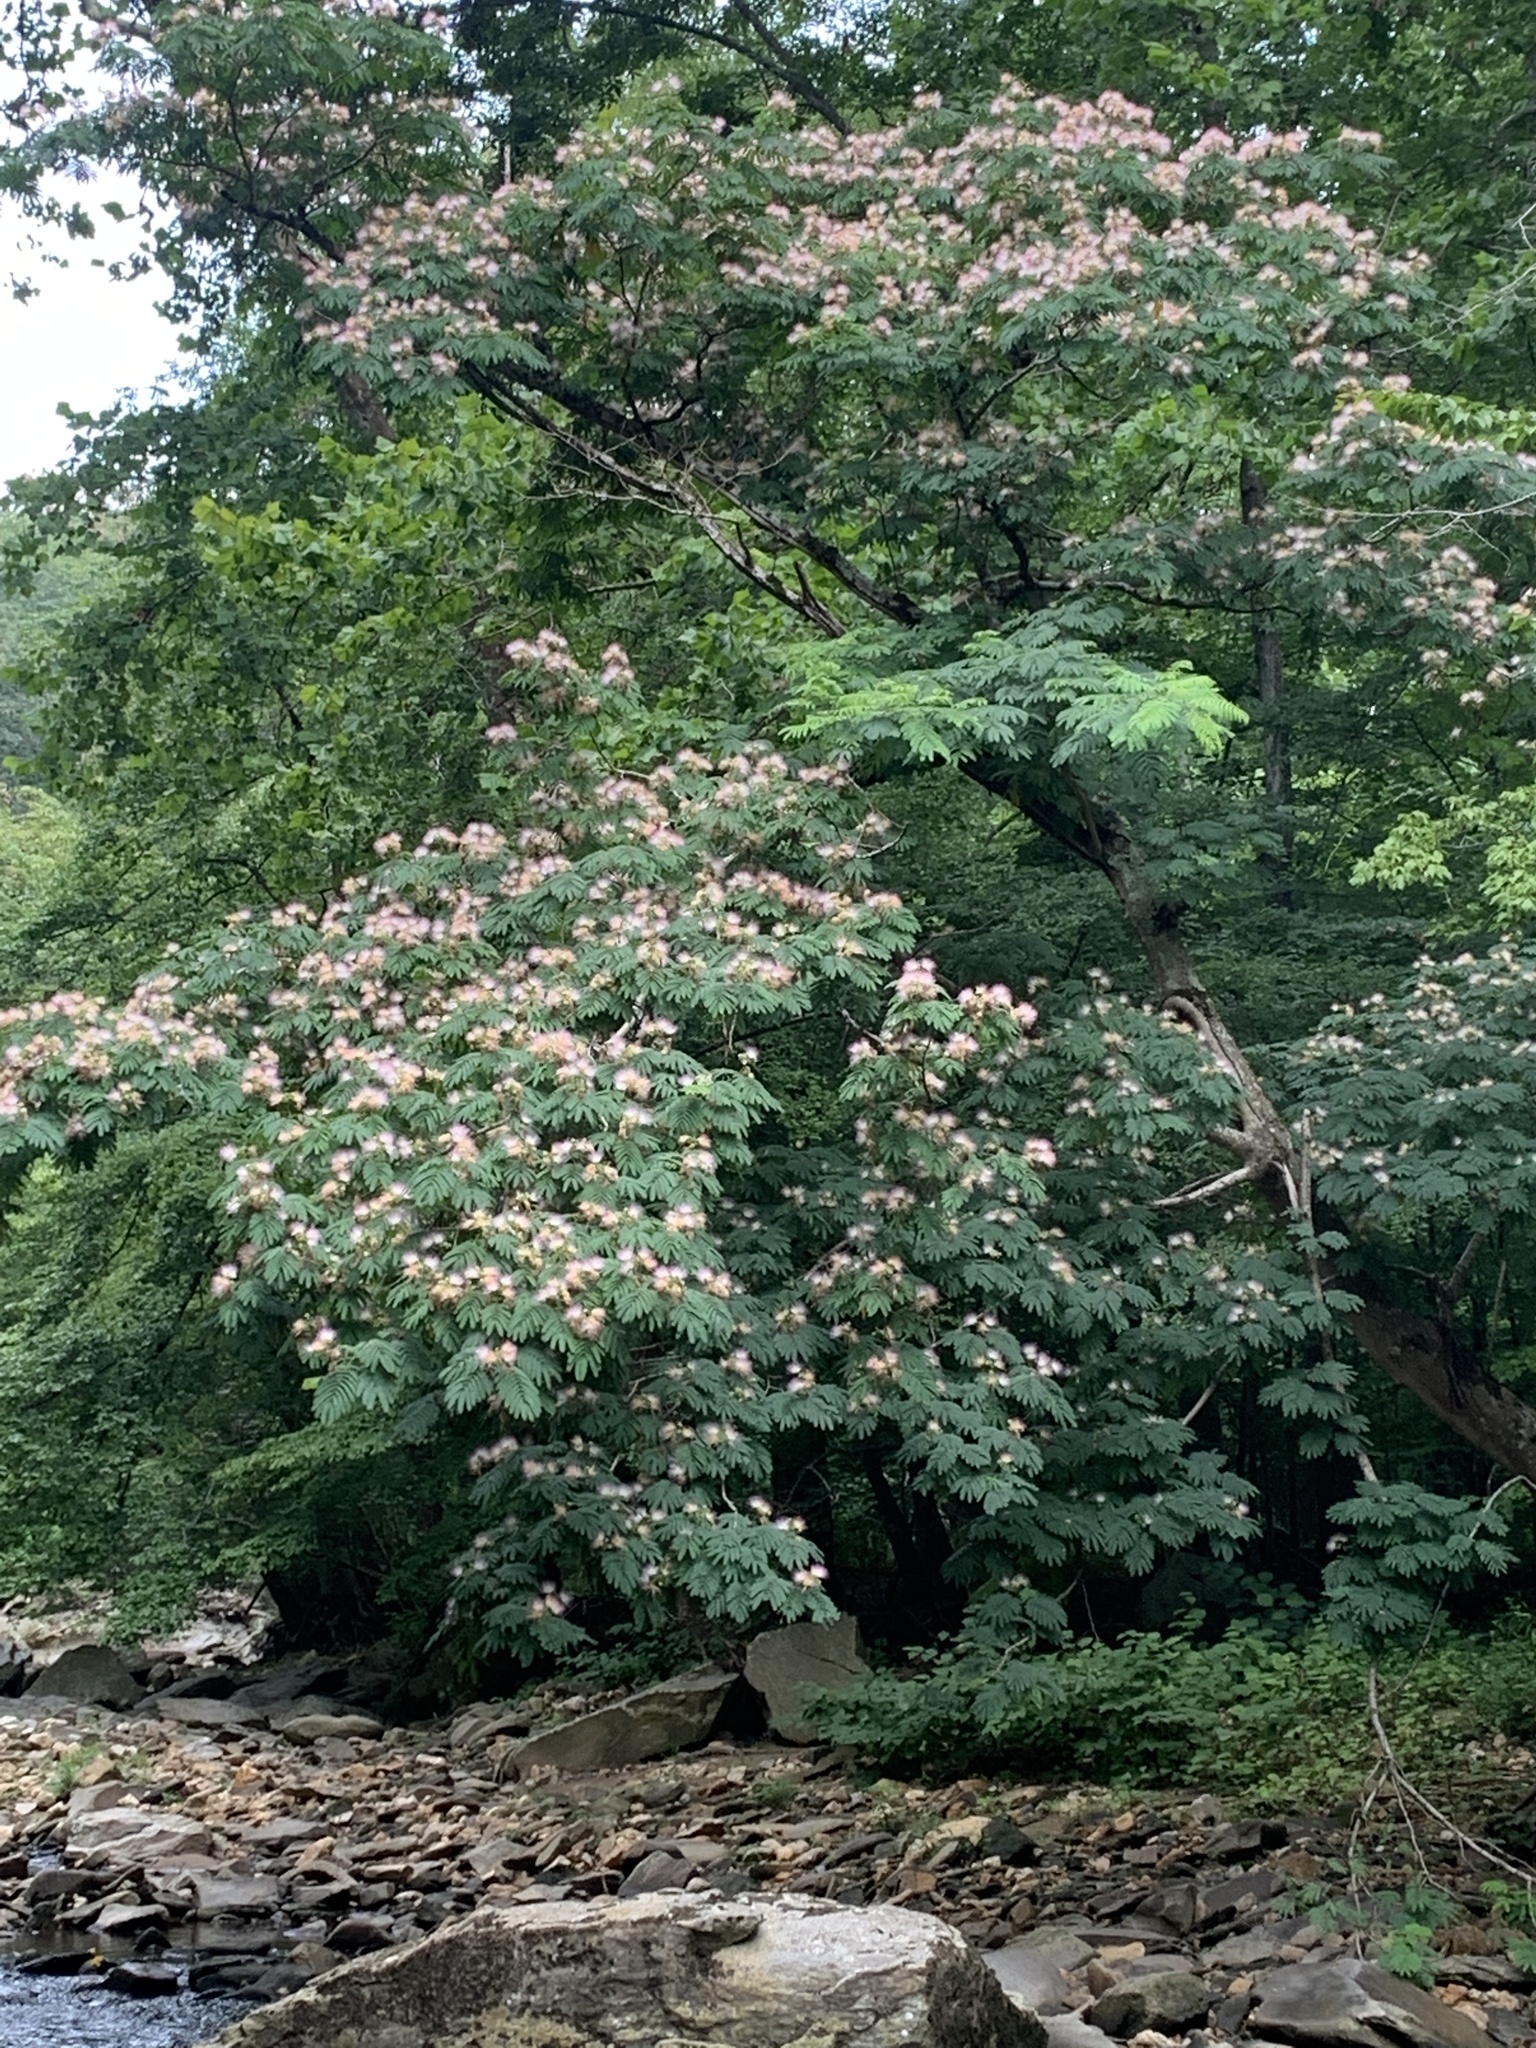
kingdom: Plantae
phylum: Tracheophyta
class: Magnoliopsida
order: Fabales
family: Fabaceae
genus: Albizia
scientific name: Albizia julibrissin
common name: Silktree
